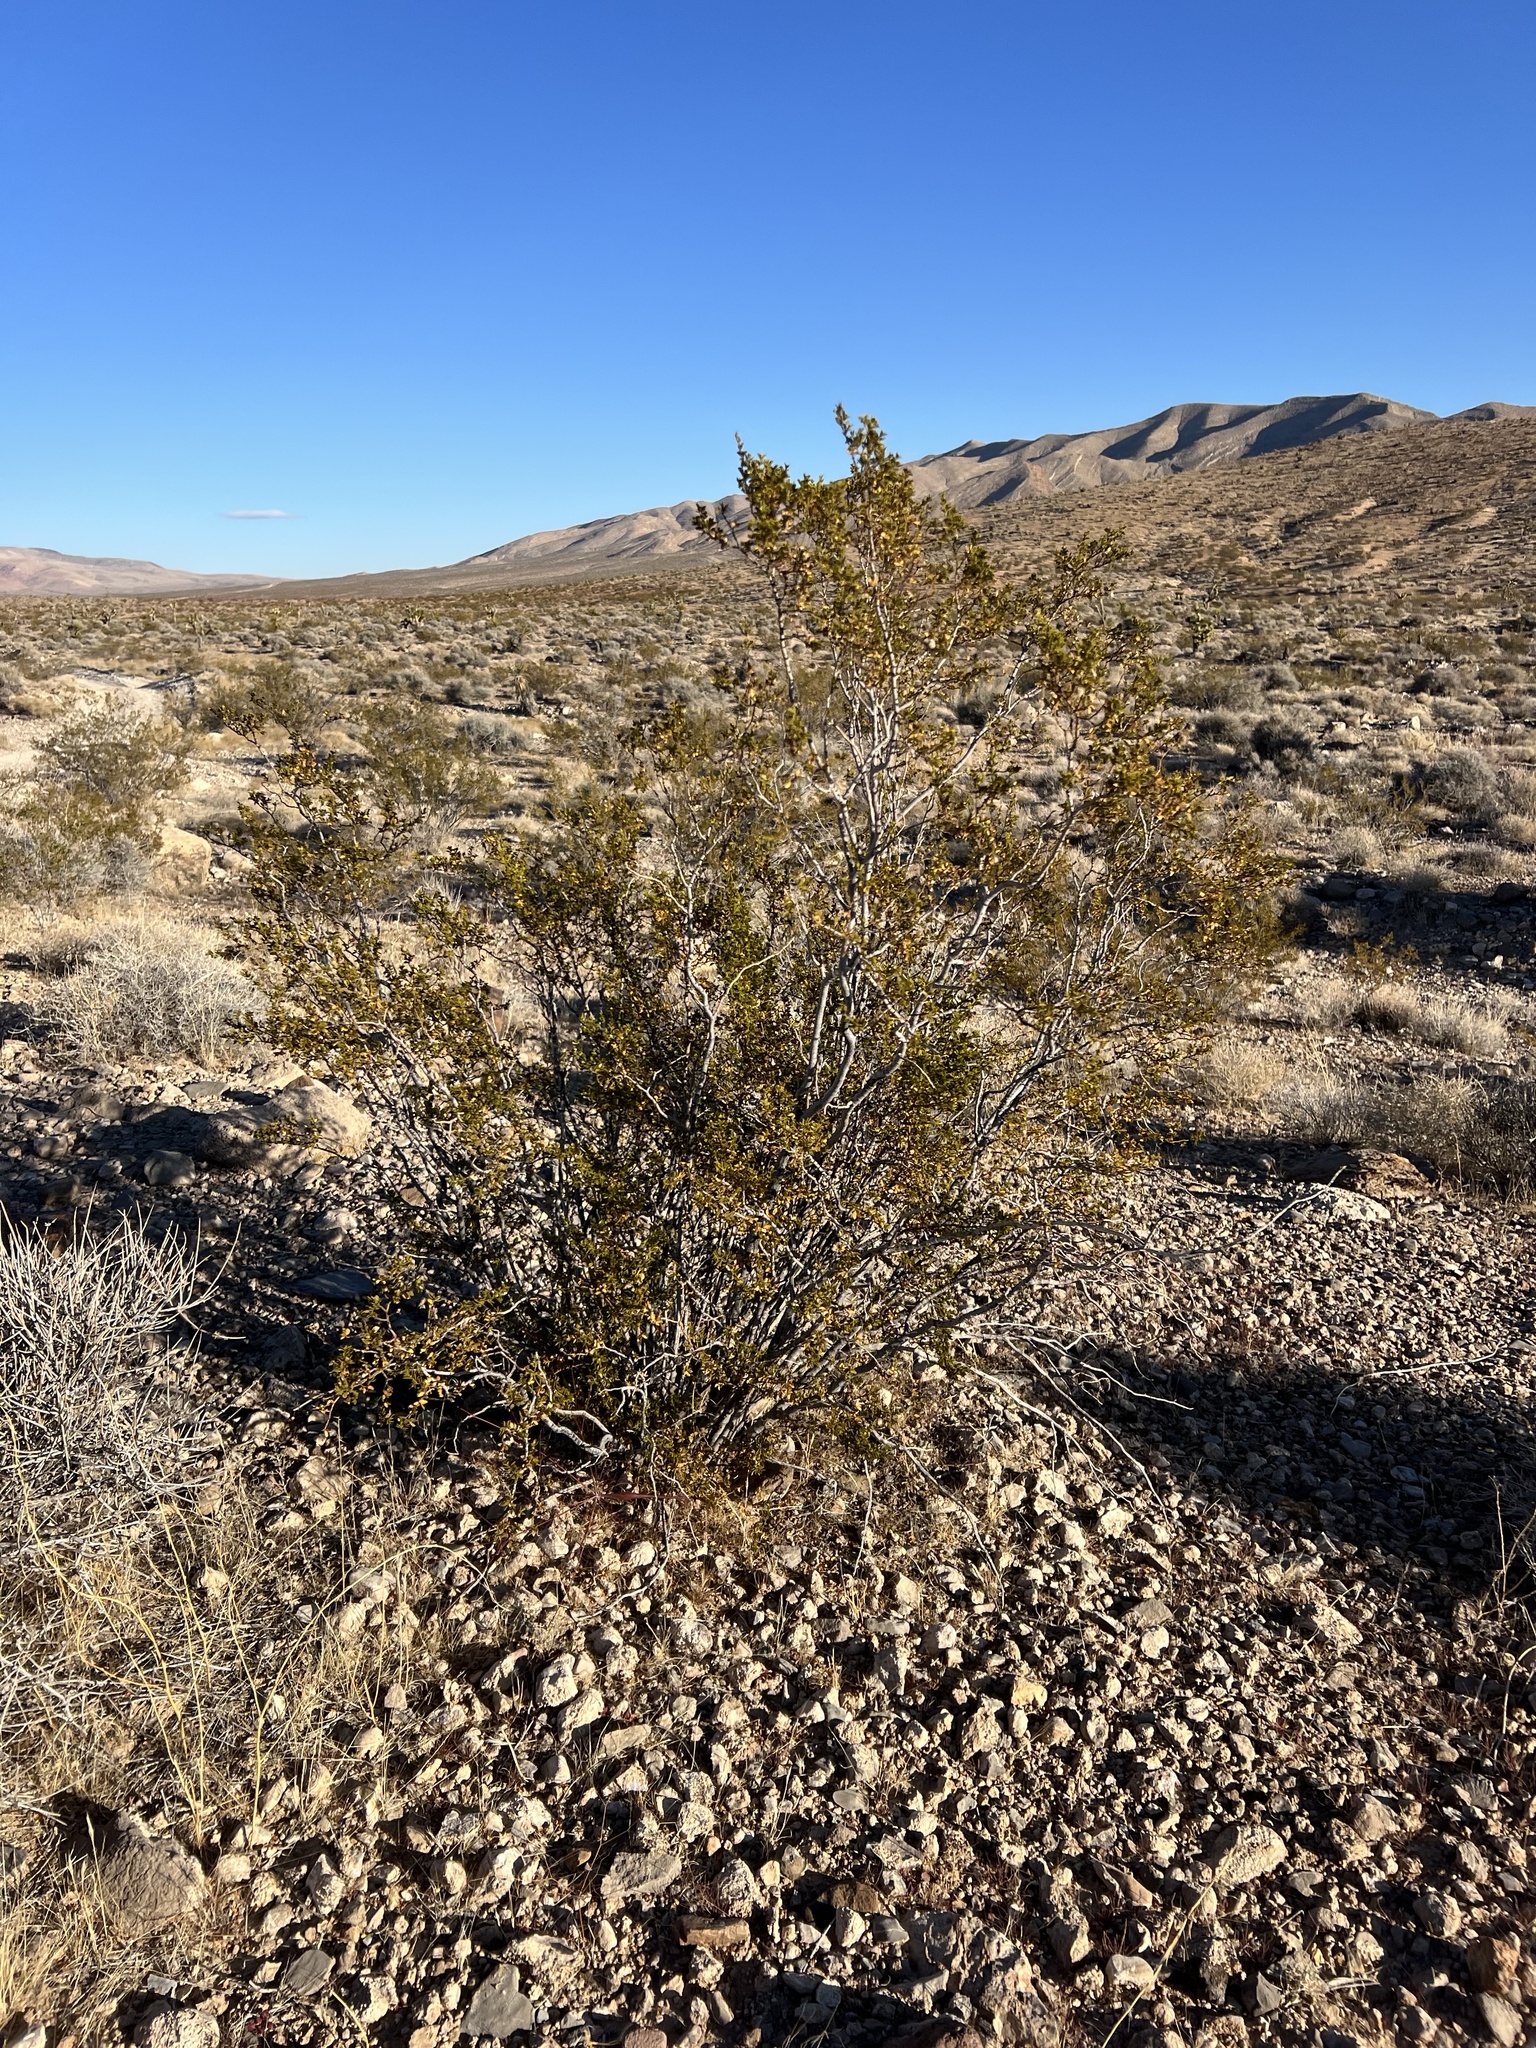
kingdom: Plantae
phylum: Tracheophyta
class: Magnoliopsida
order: Zygophyllales
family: Zygophyllaceae
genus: Larrea
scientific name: Larrea tridentata
